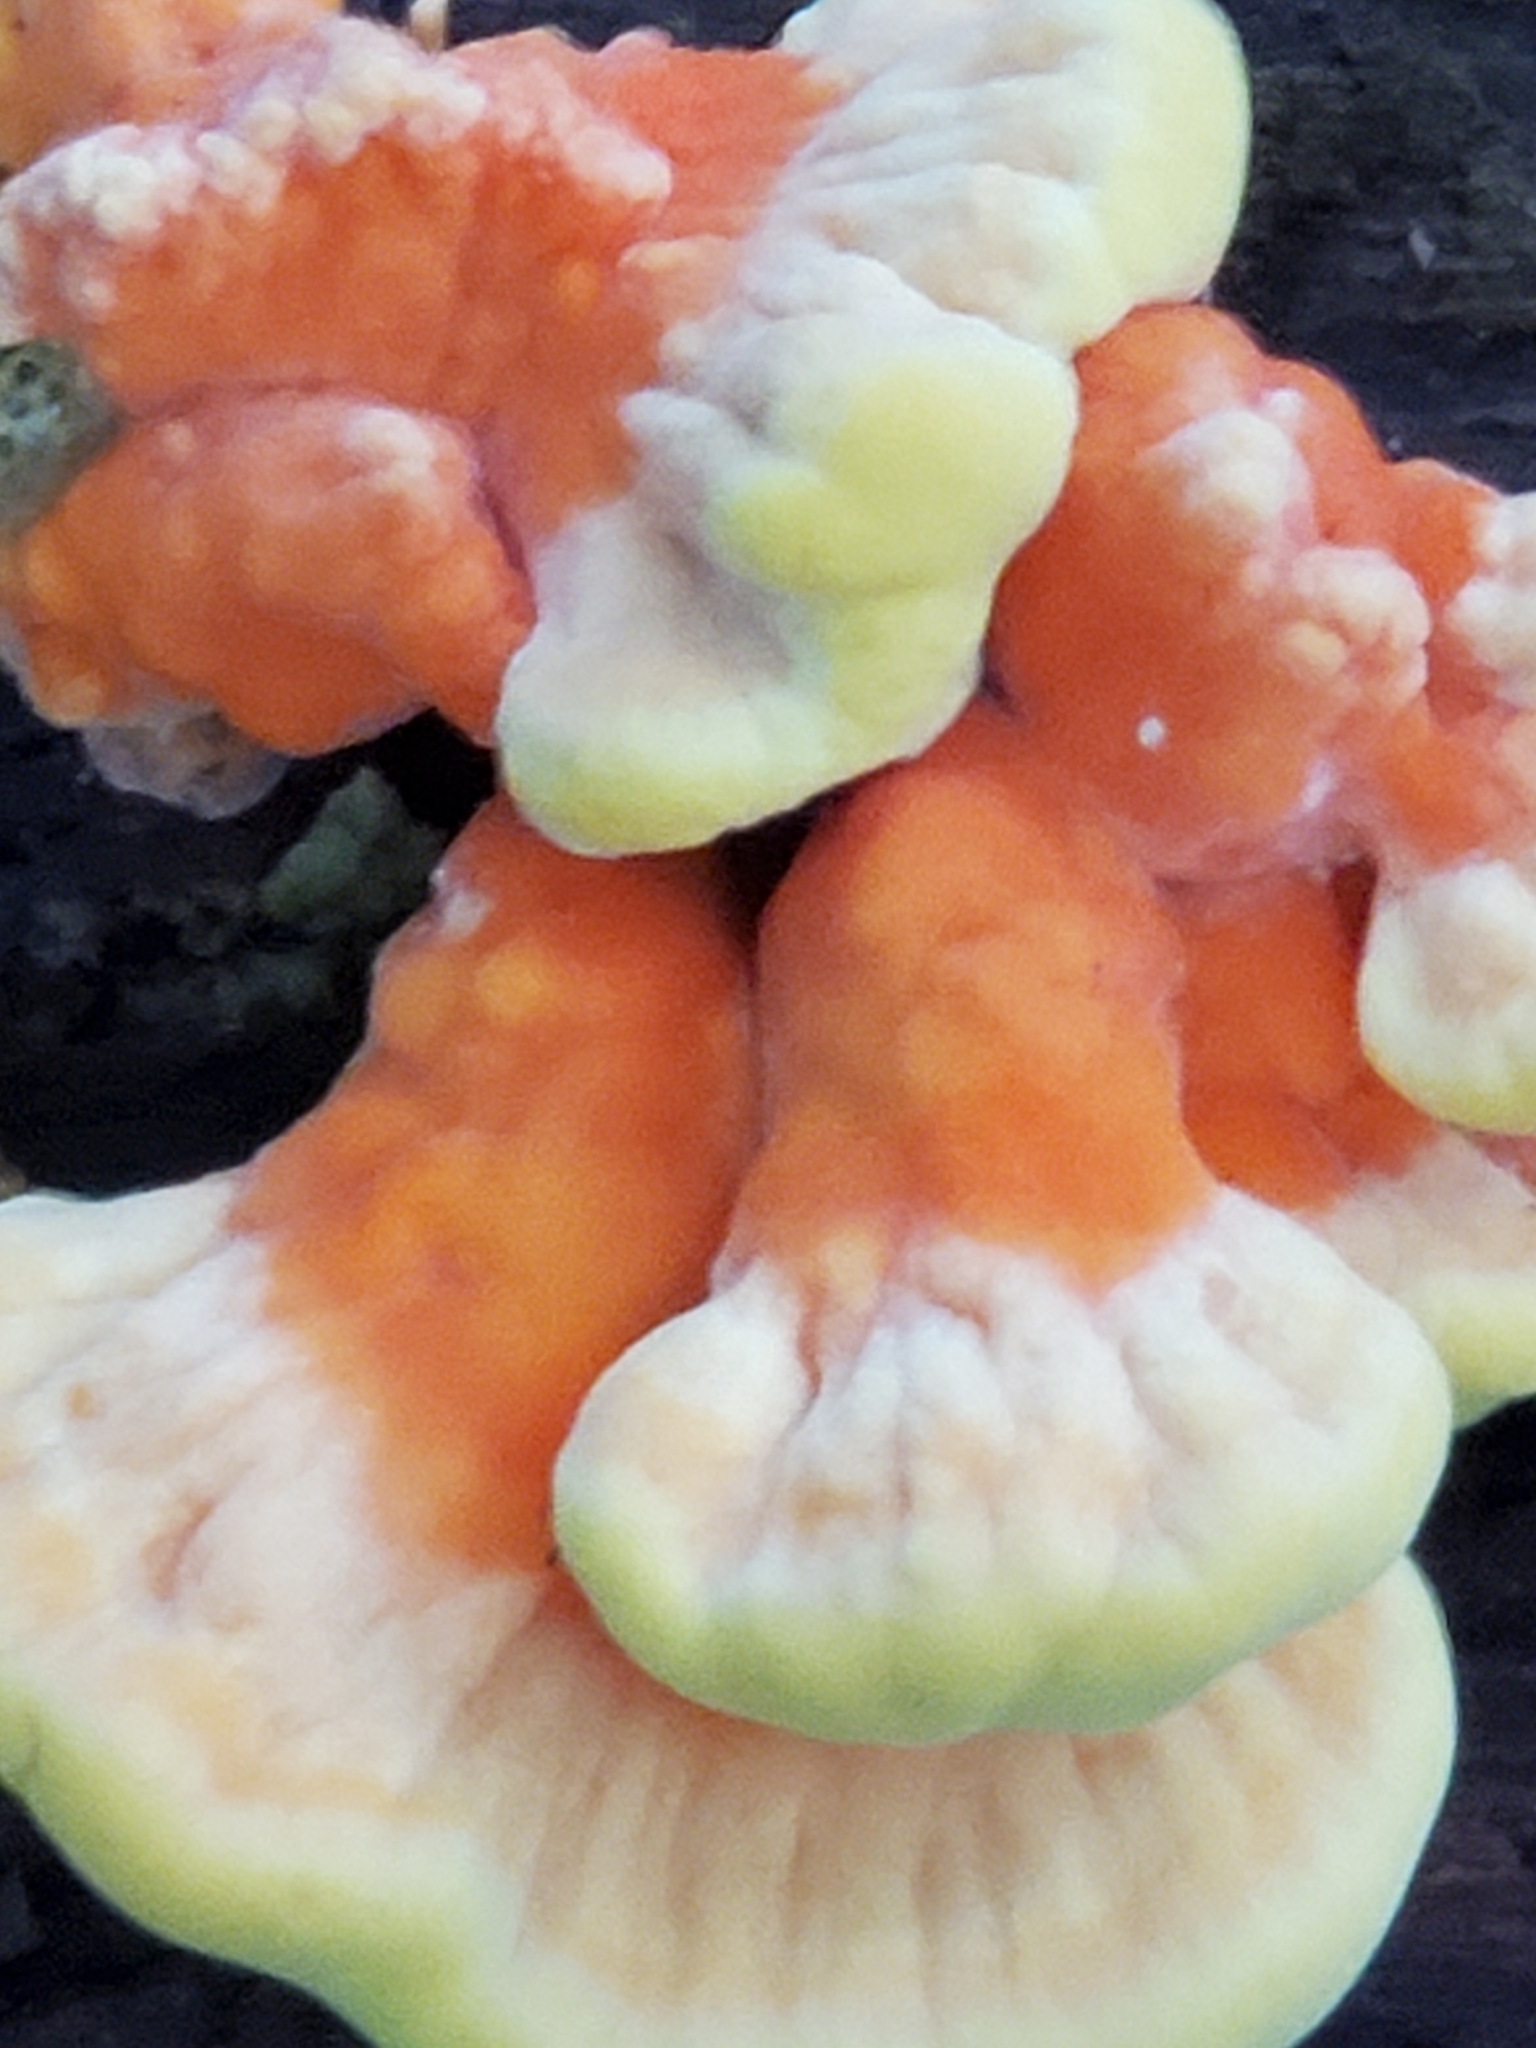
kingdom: Fungi
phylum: Basidiomycota
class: Agaricomycetes
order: Polyporales
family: Laetiporaceae
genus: Laetiporus
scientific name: Laetiporus sulphureus
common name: Chicken of the woods
